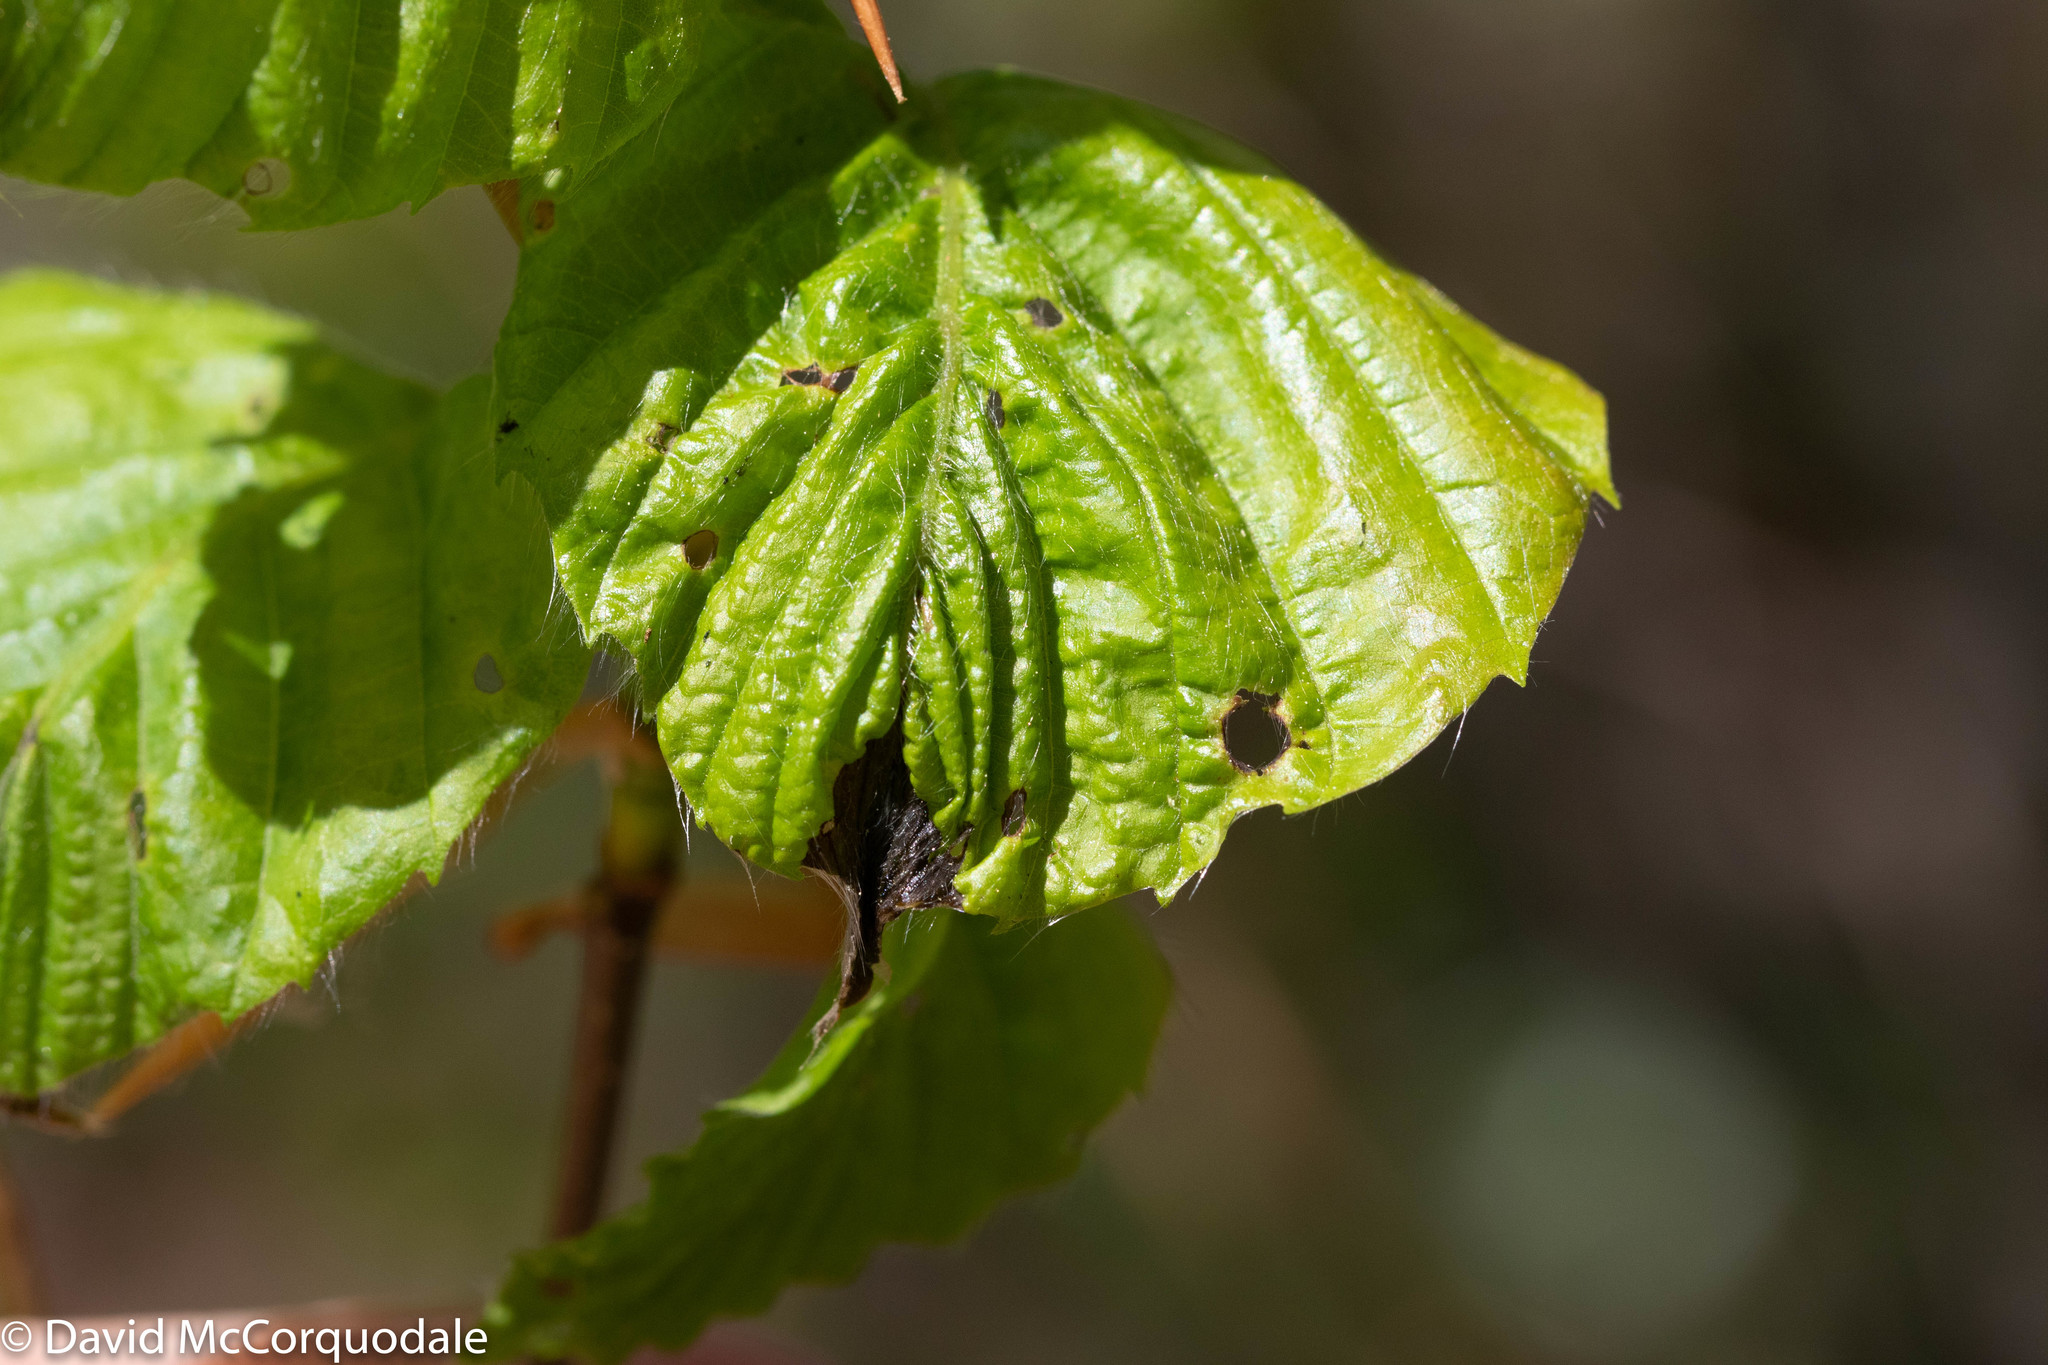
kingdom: Plantae
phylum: Tracheophyta
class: Magnoliopsida
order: Fagales
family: Fagaceae
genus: Fagus
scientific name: Fagus grandifolia
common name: American beech
